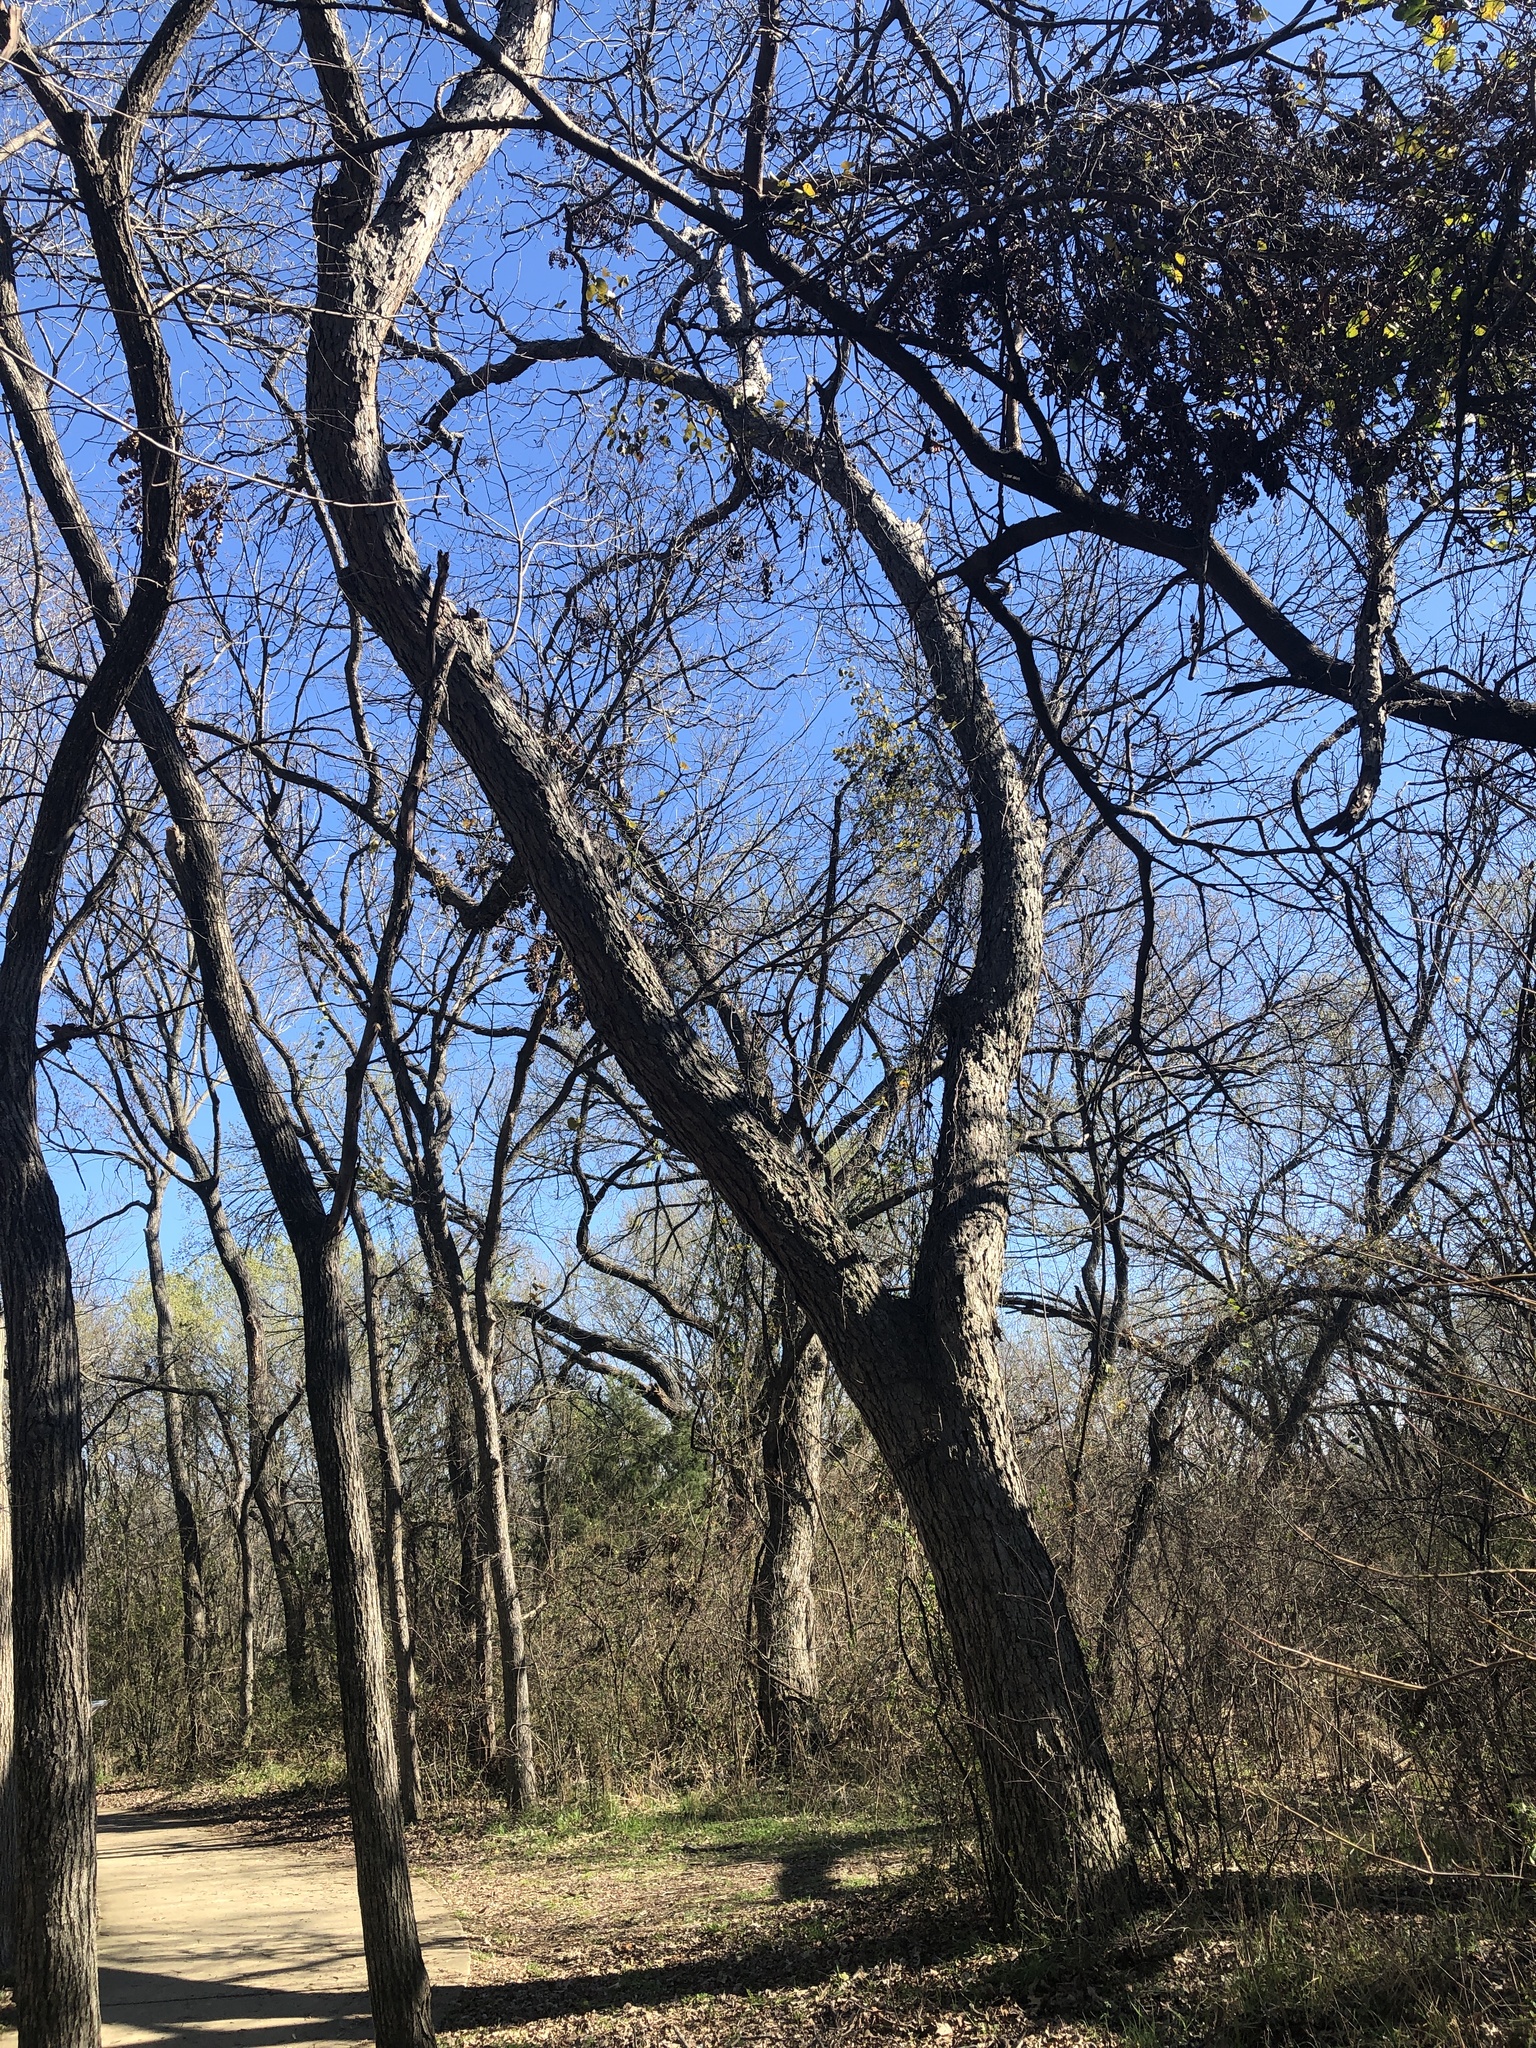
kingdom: Plantae
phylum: Tracheophyta
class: Magnoliopsida
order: Fagales
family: Juglandaceae
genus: Carya
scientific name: Carya illinoinensis
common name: Pecan
